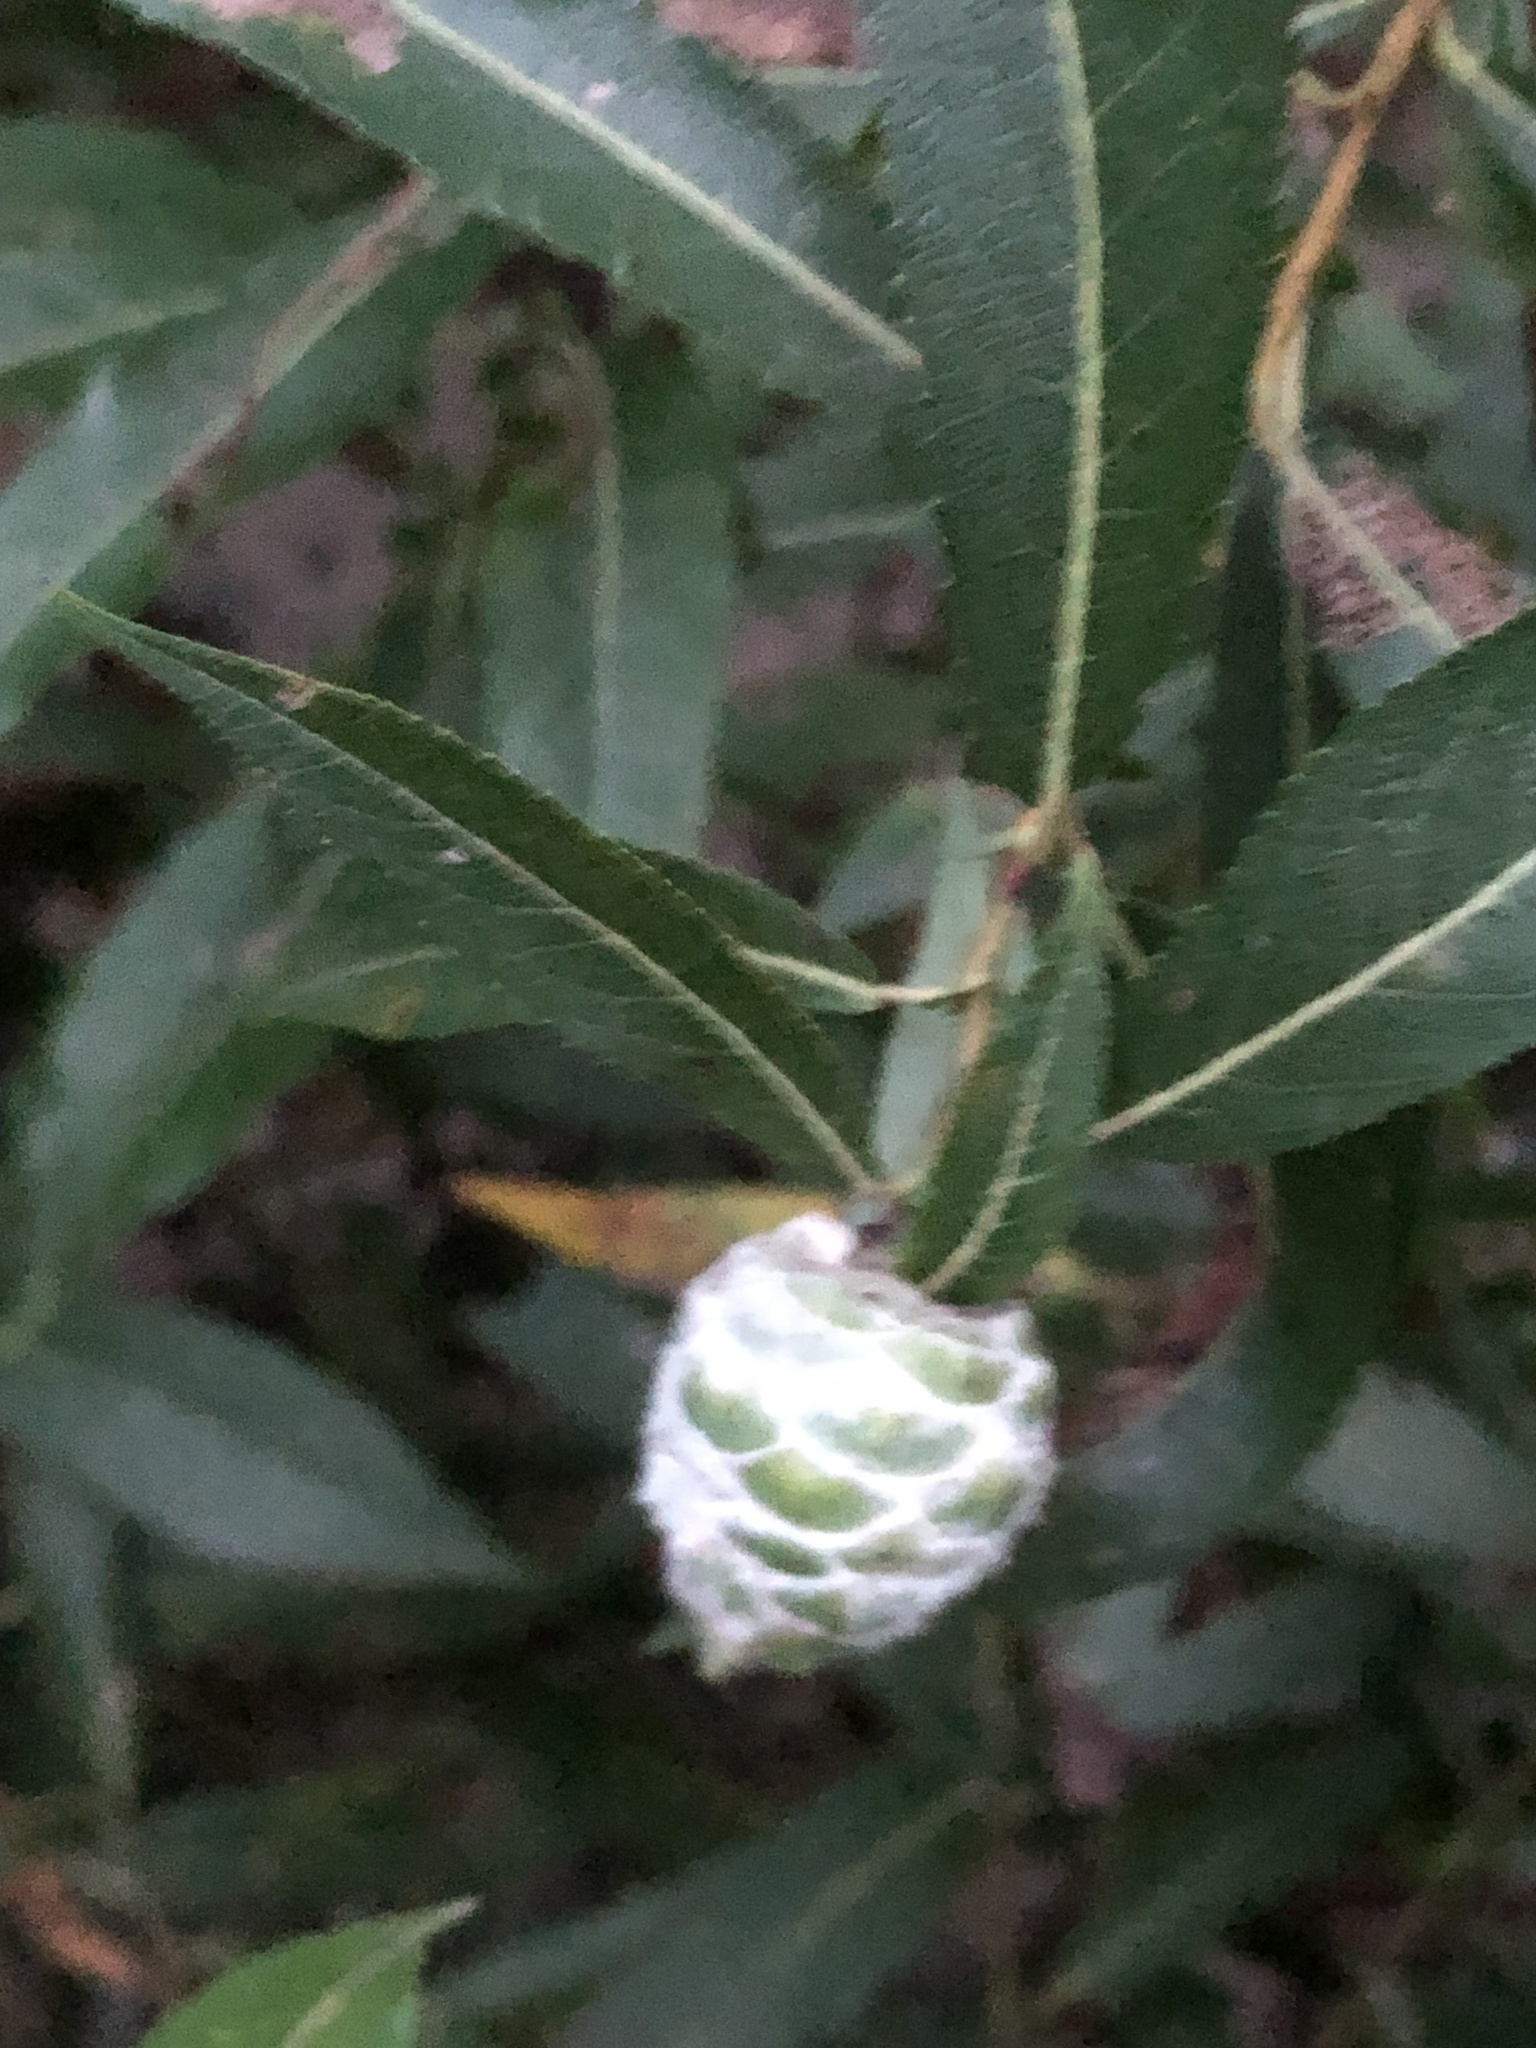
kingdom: Animalia
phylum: Arthropoda
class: Insecta
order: Diptera
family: Cecidomyiidae
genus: Rabdophaga
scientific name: Rabdophaga strobiloides
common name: Willow pinecone gall midge
